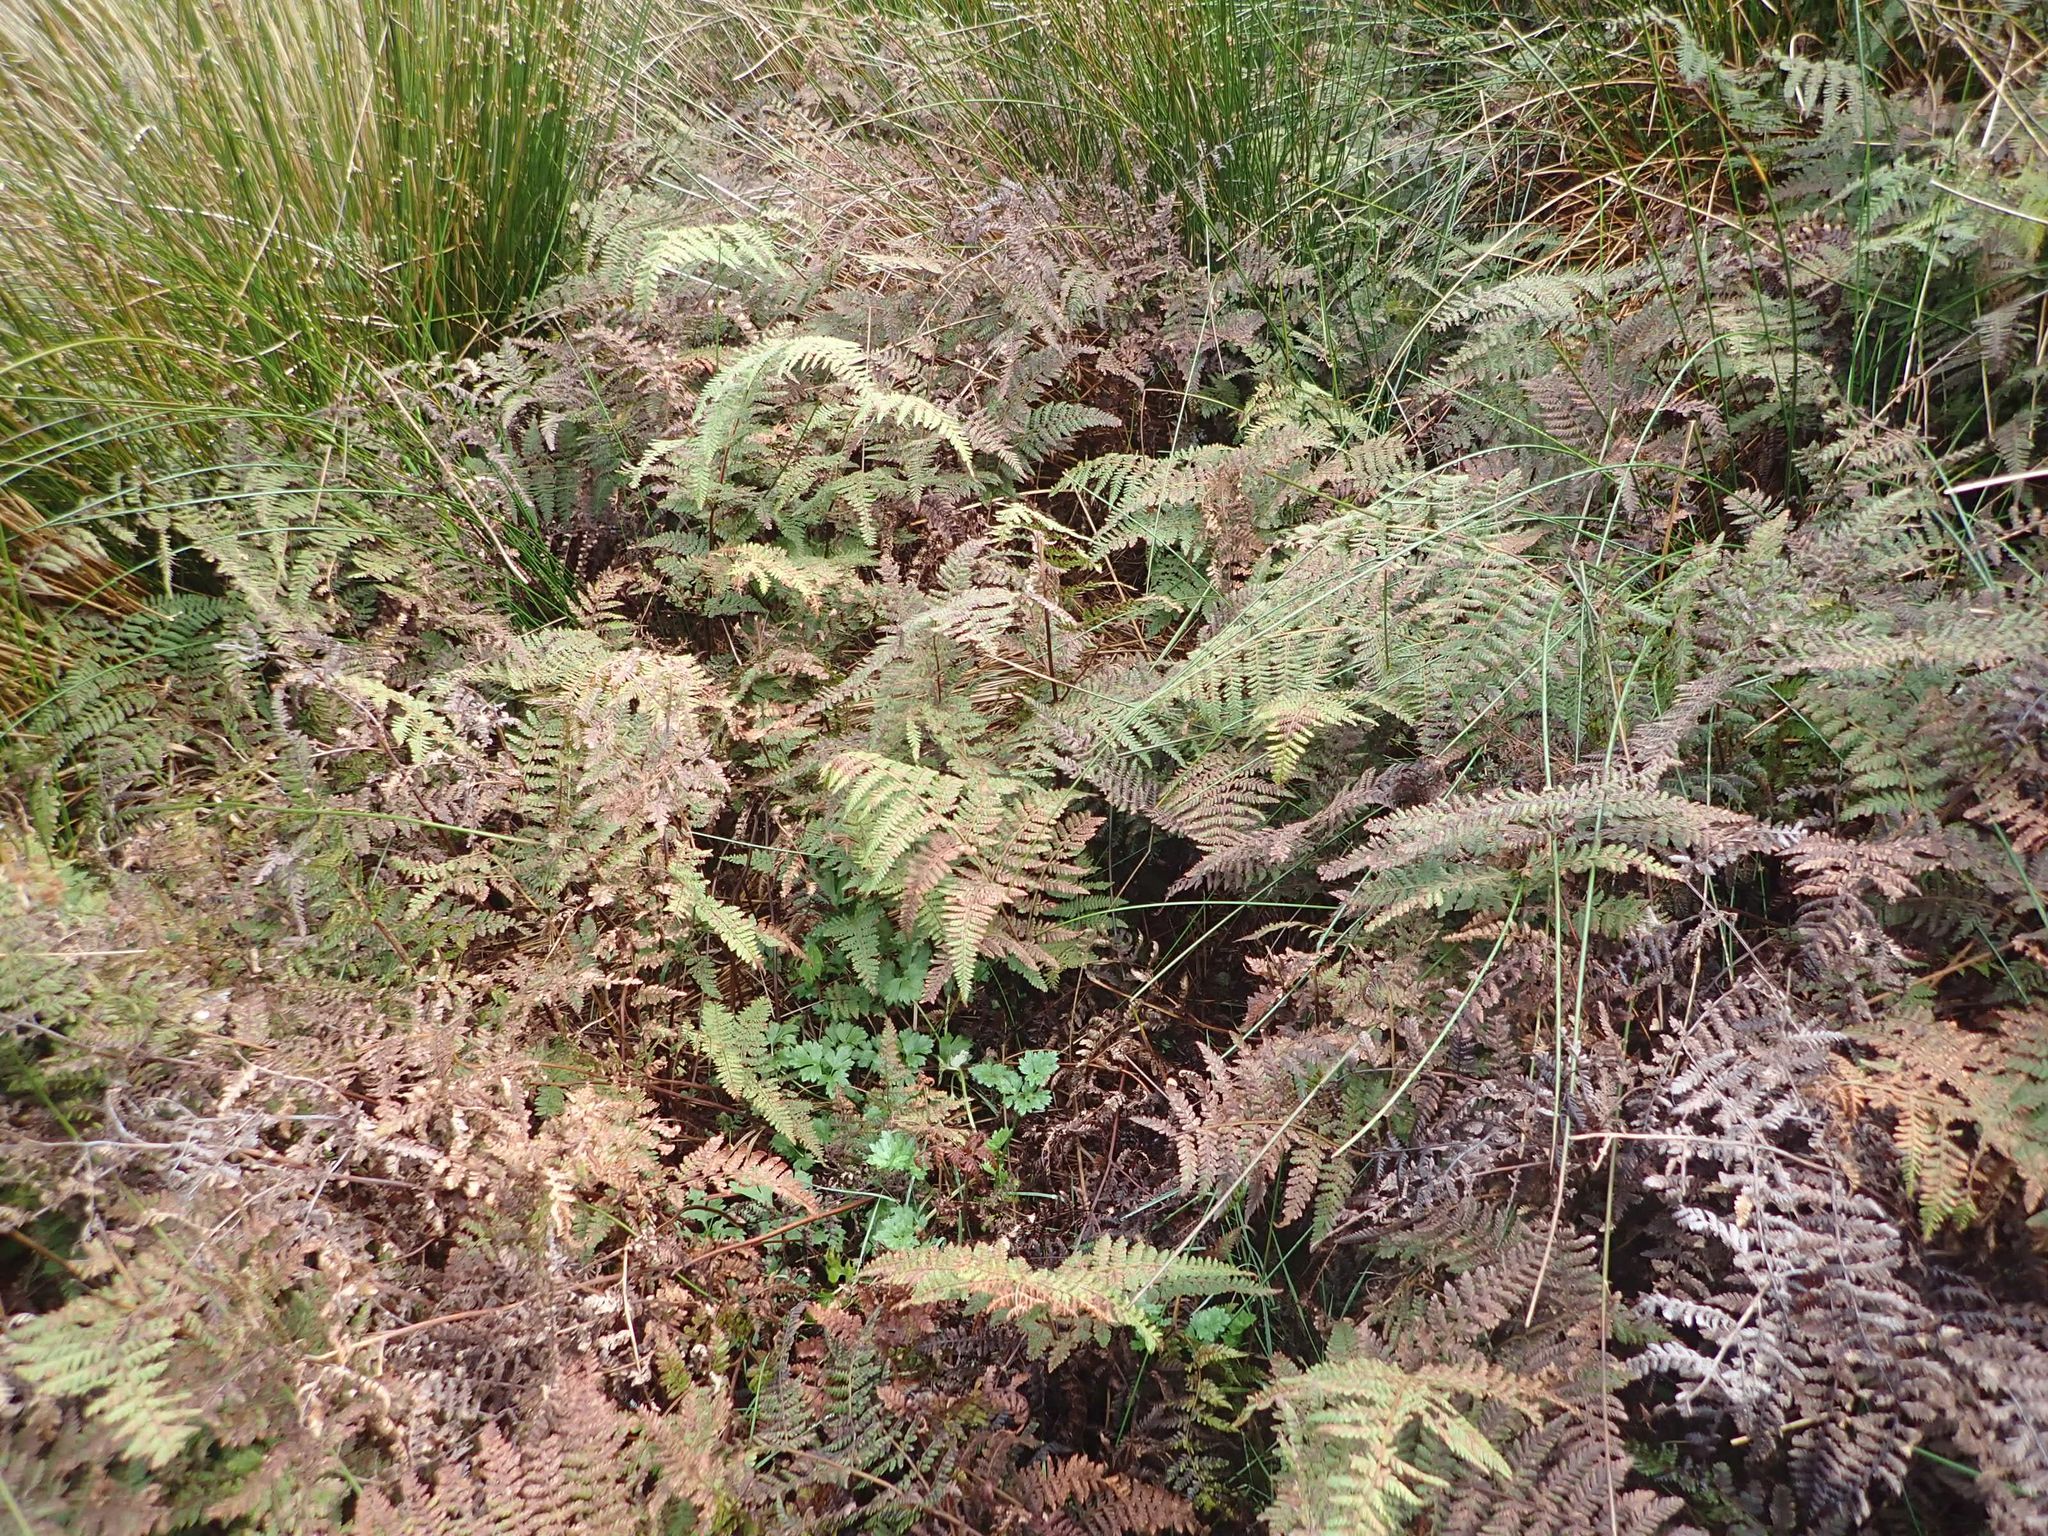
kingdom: Plantae
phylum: Tracheophyta
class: Polypodiopsida
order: Polypodiales
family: Dennstaedtiaceae
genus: Hypolepis
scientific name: Hypolepis ambigua
